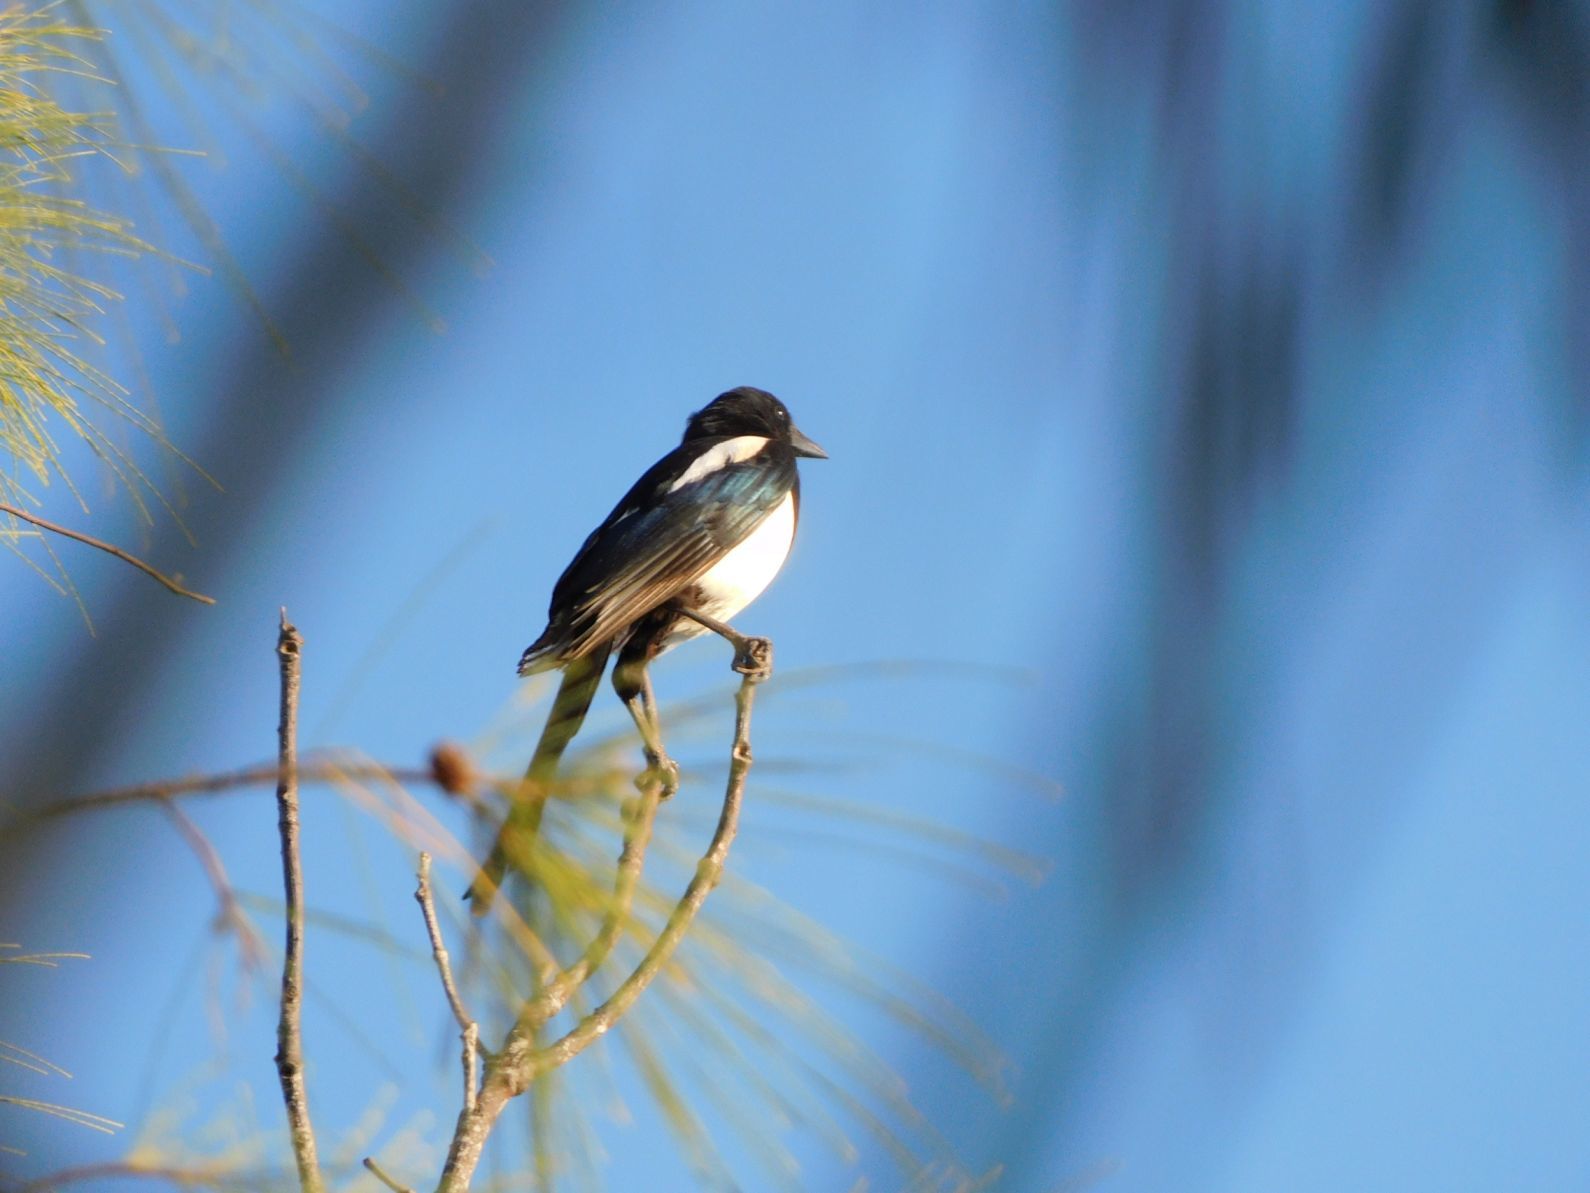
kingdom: Animalia
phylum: Chordata
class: Aves
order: Passeriformes
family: Corvidae
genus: Pica
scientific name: Pica
